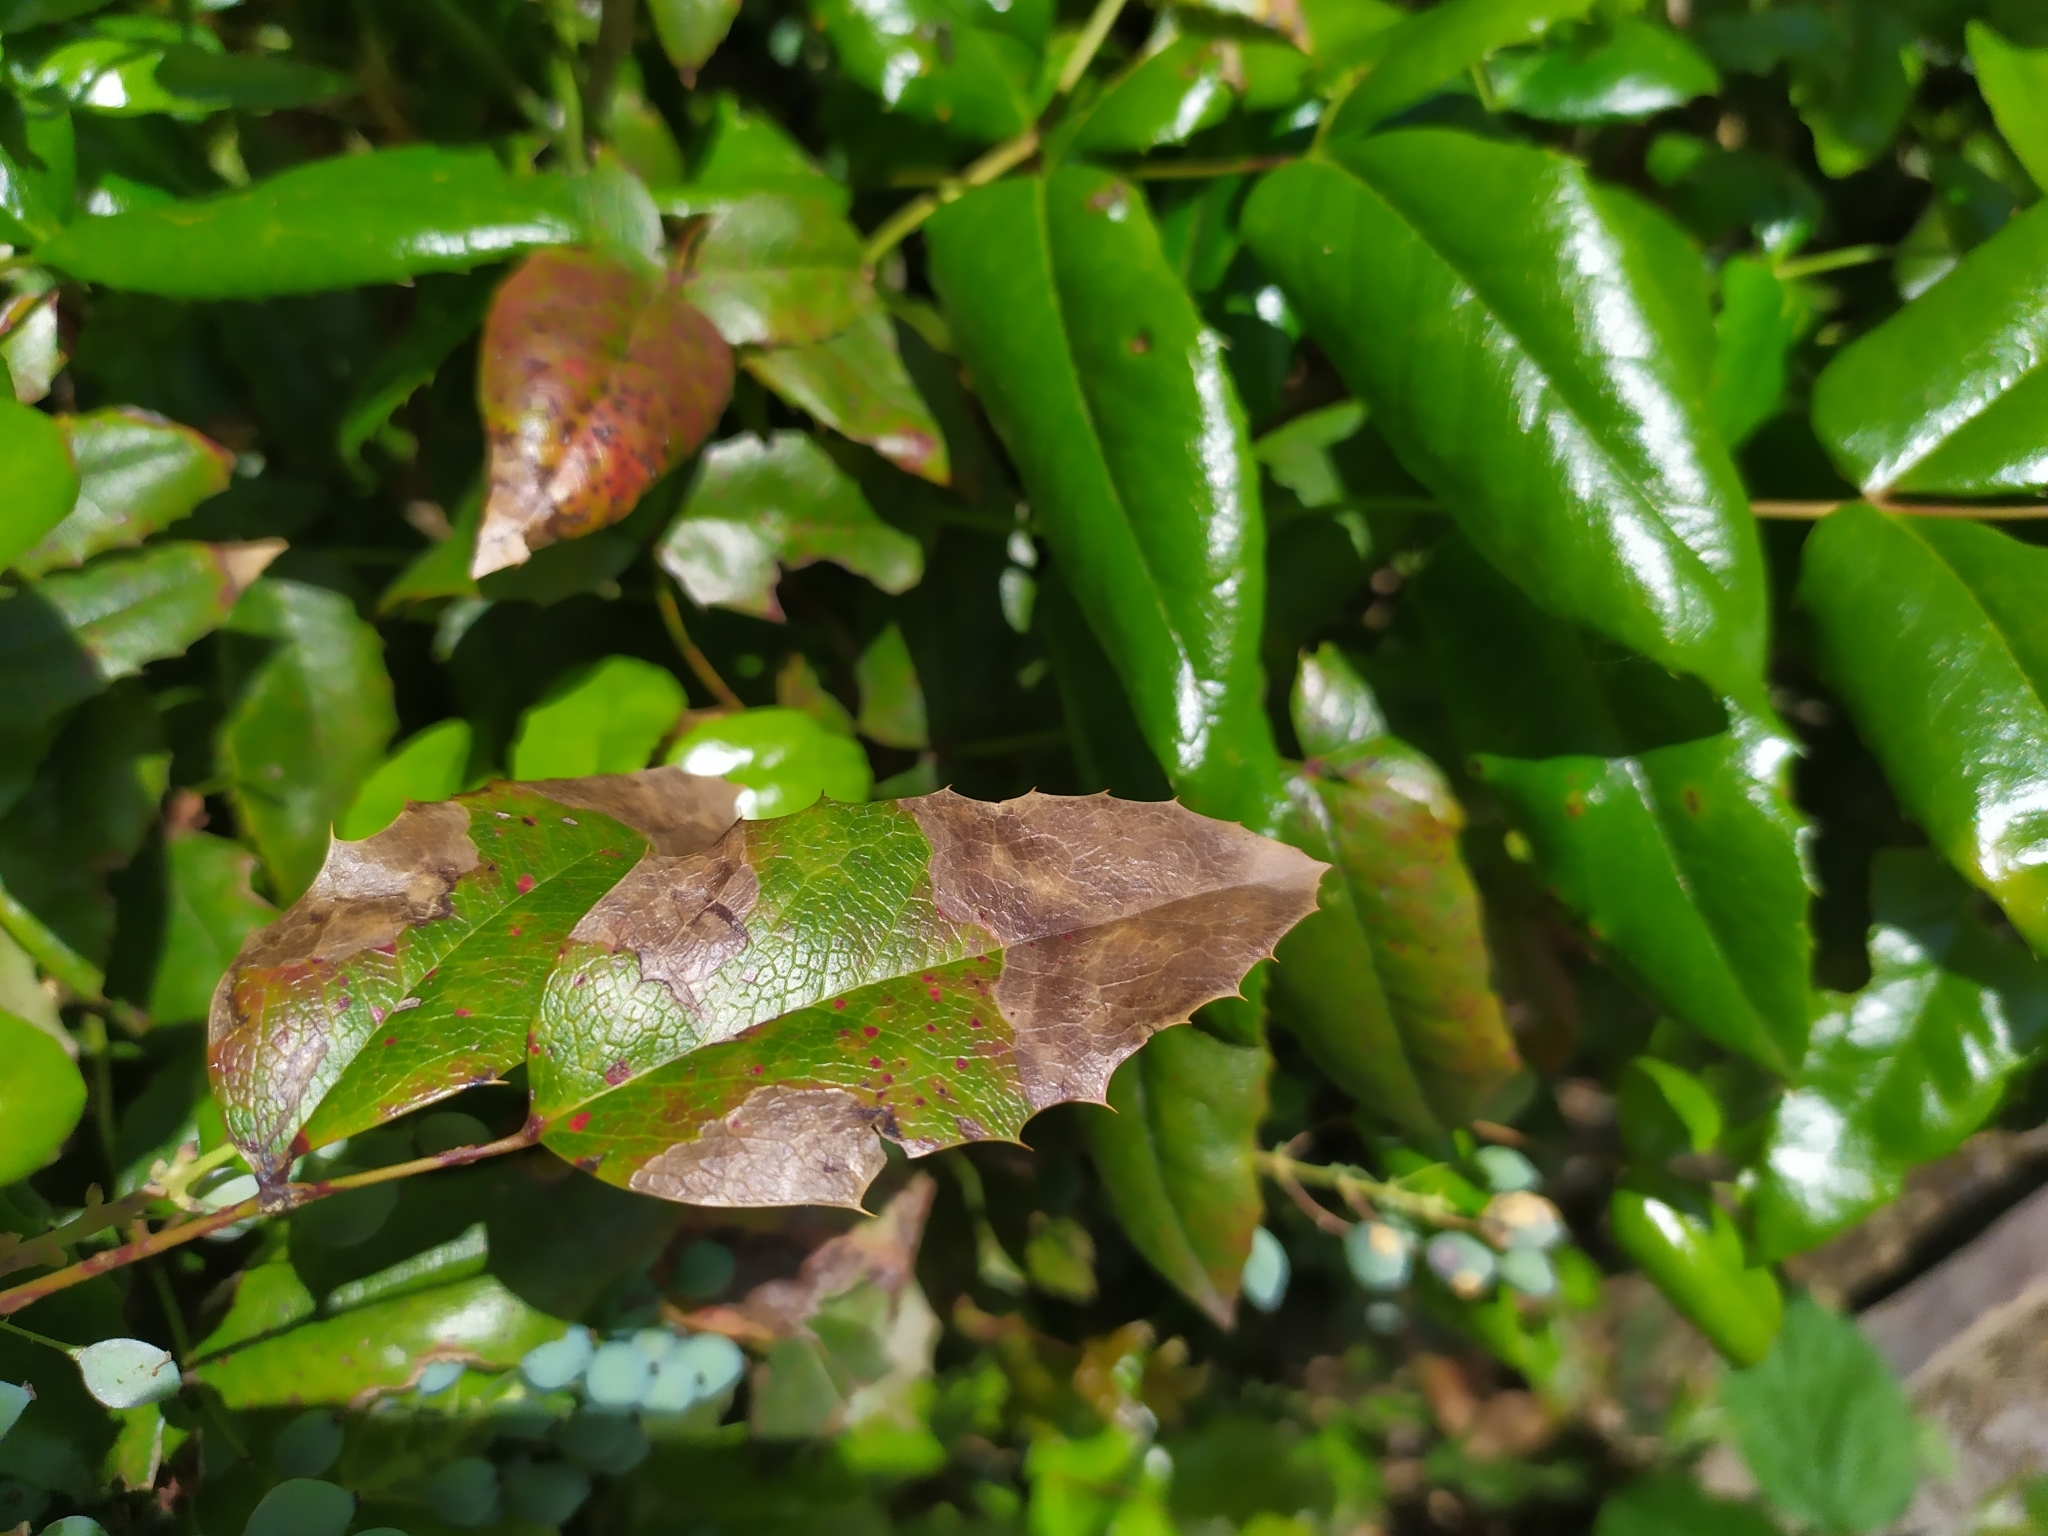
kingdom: Fungi
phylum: Basidiomycota
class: Pucciniomycetes
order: Pucciniales
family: Pucciniaceae
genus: Cumminsiella
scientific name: Cumminsiella mirabilissima
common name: Mahonia rust
